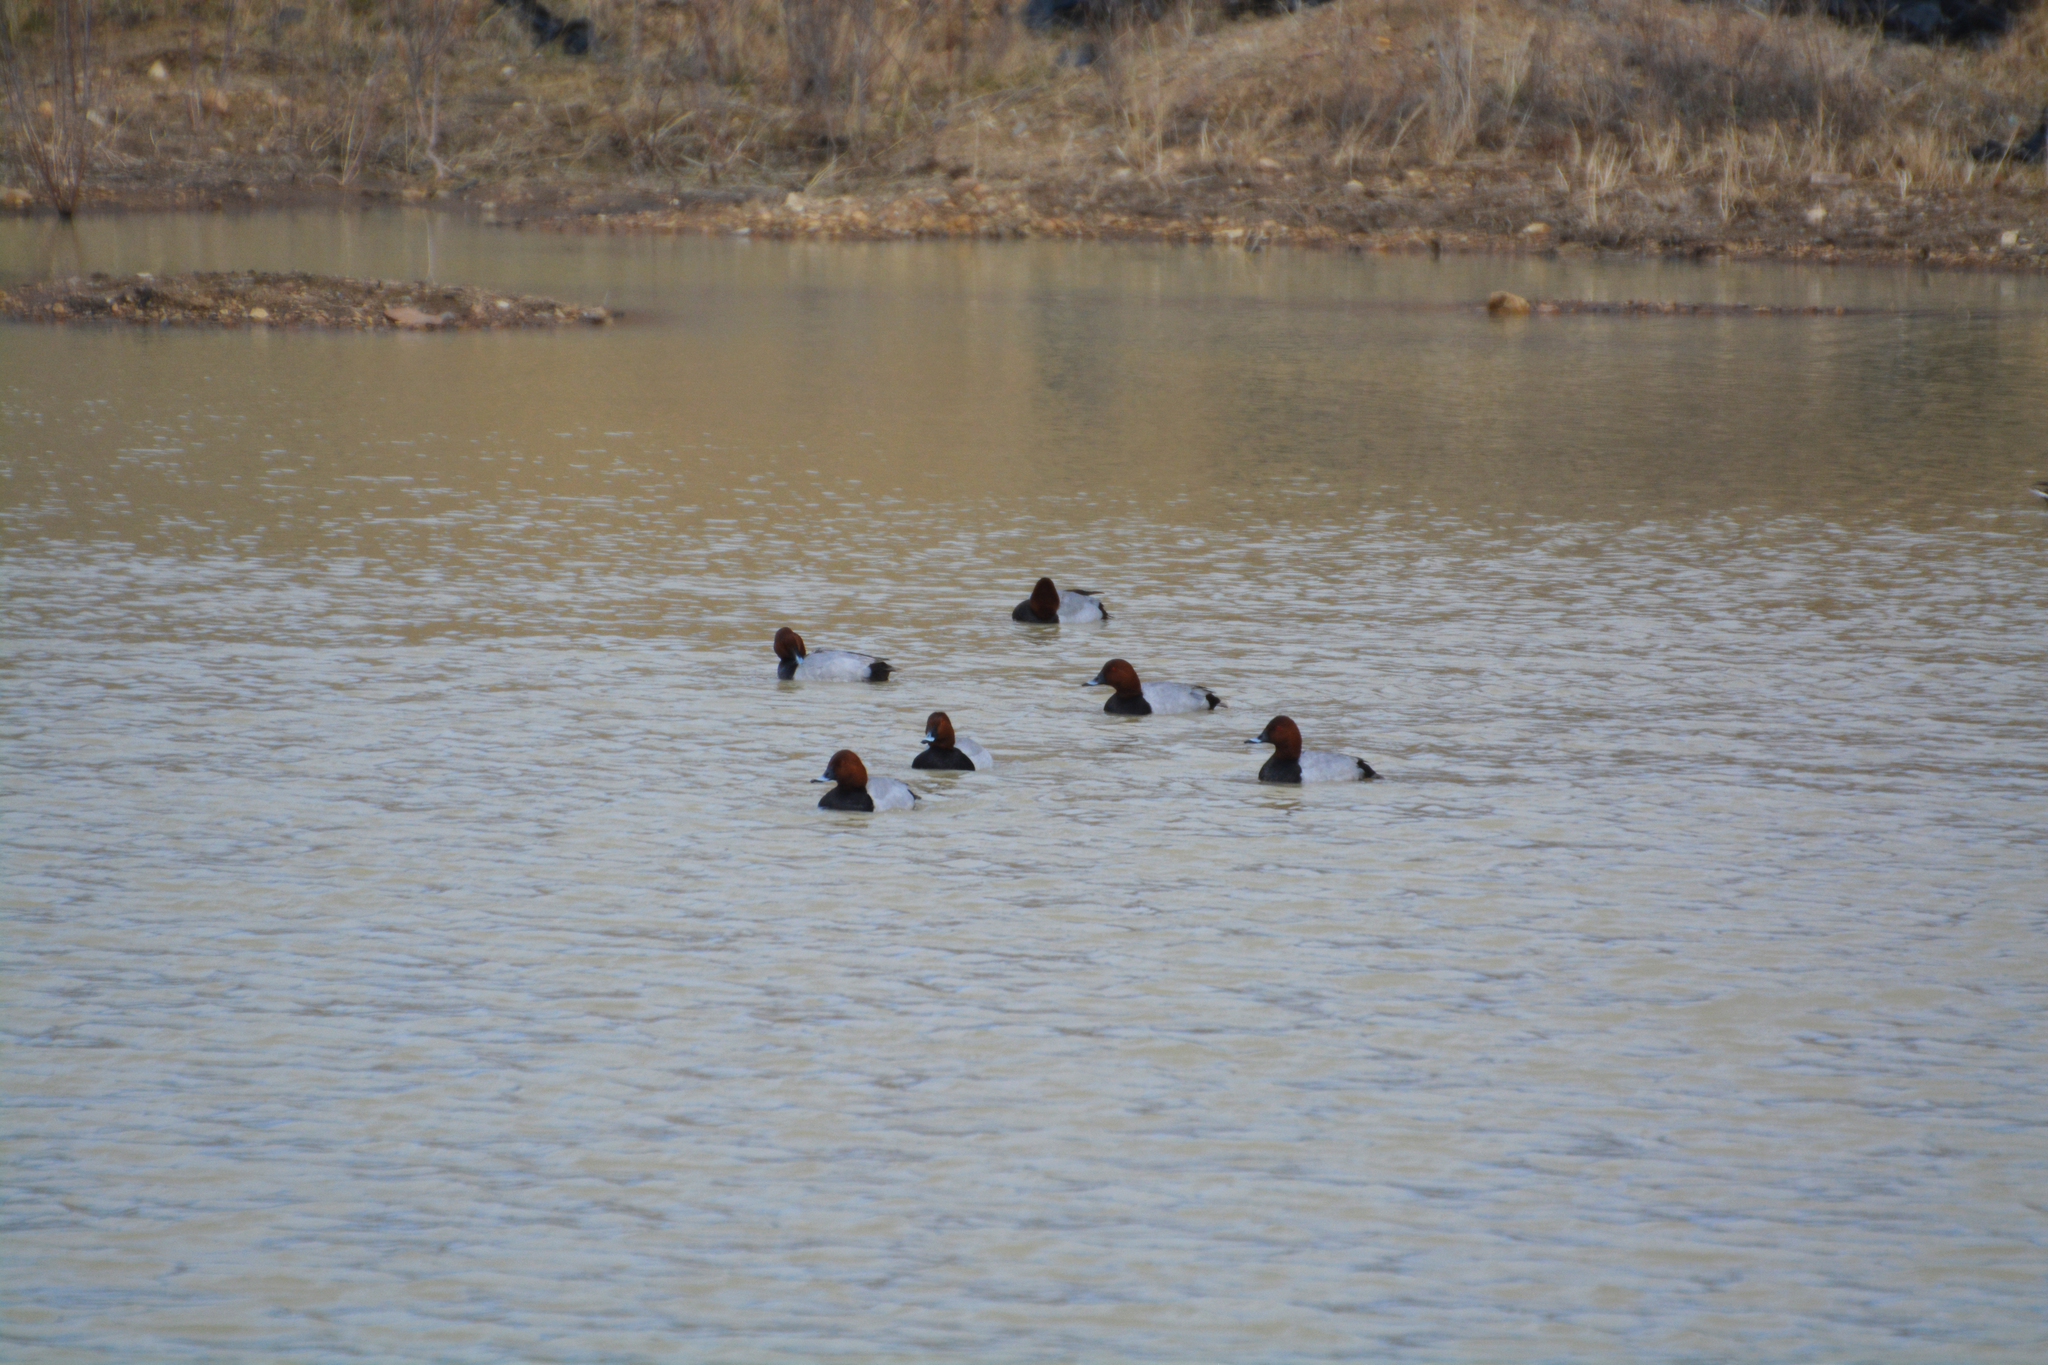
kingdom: Animalia
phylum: Chordata
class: Aves
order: Anseriformes
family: Anatidae
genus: Aythya
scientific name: Aythya ferina
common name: Common pochard
